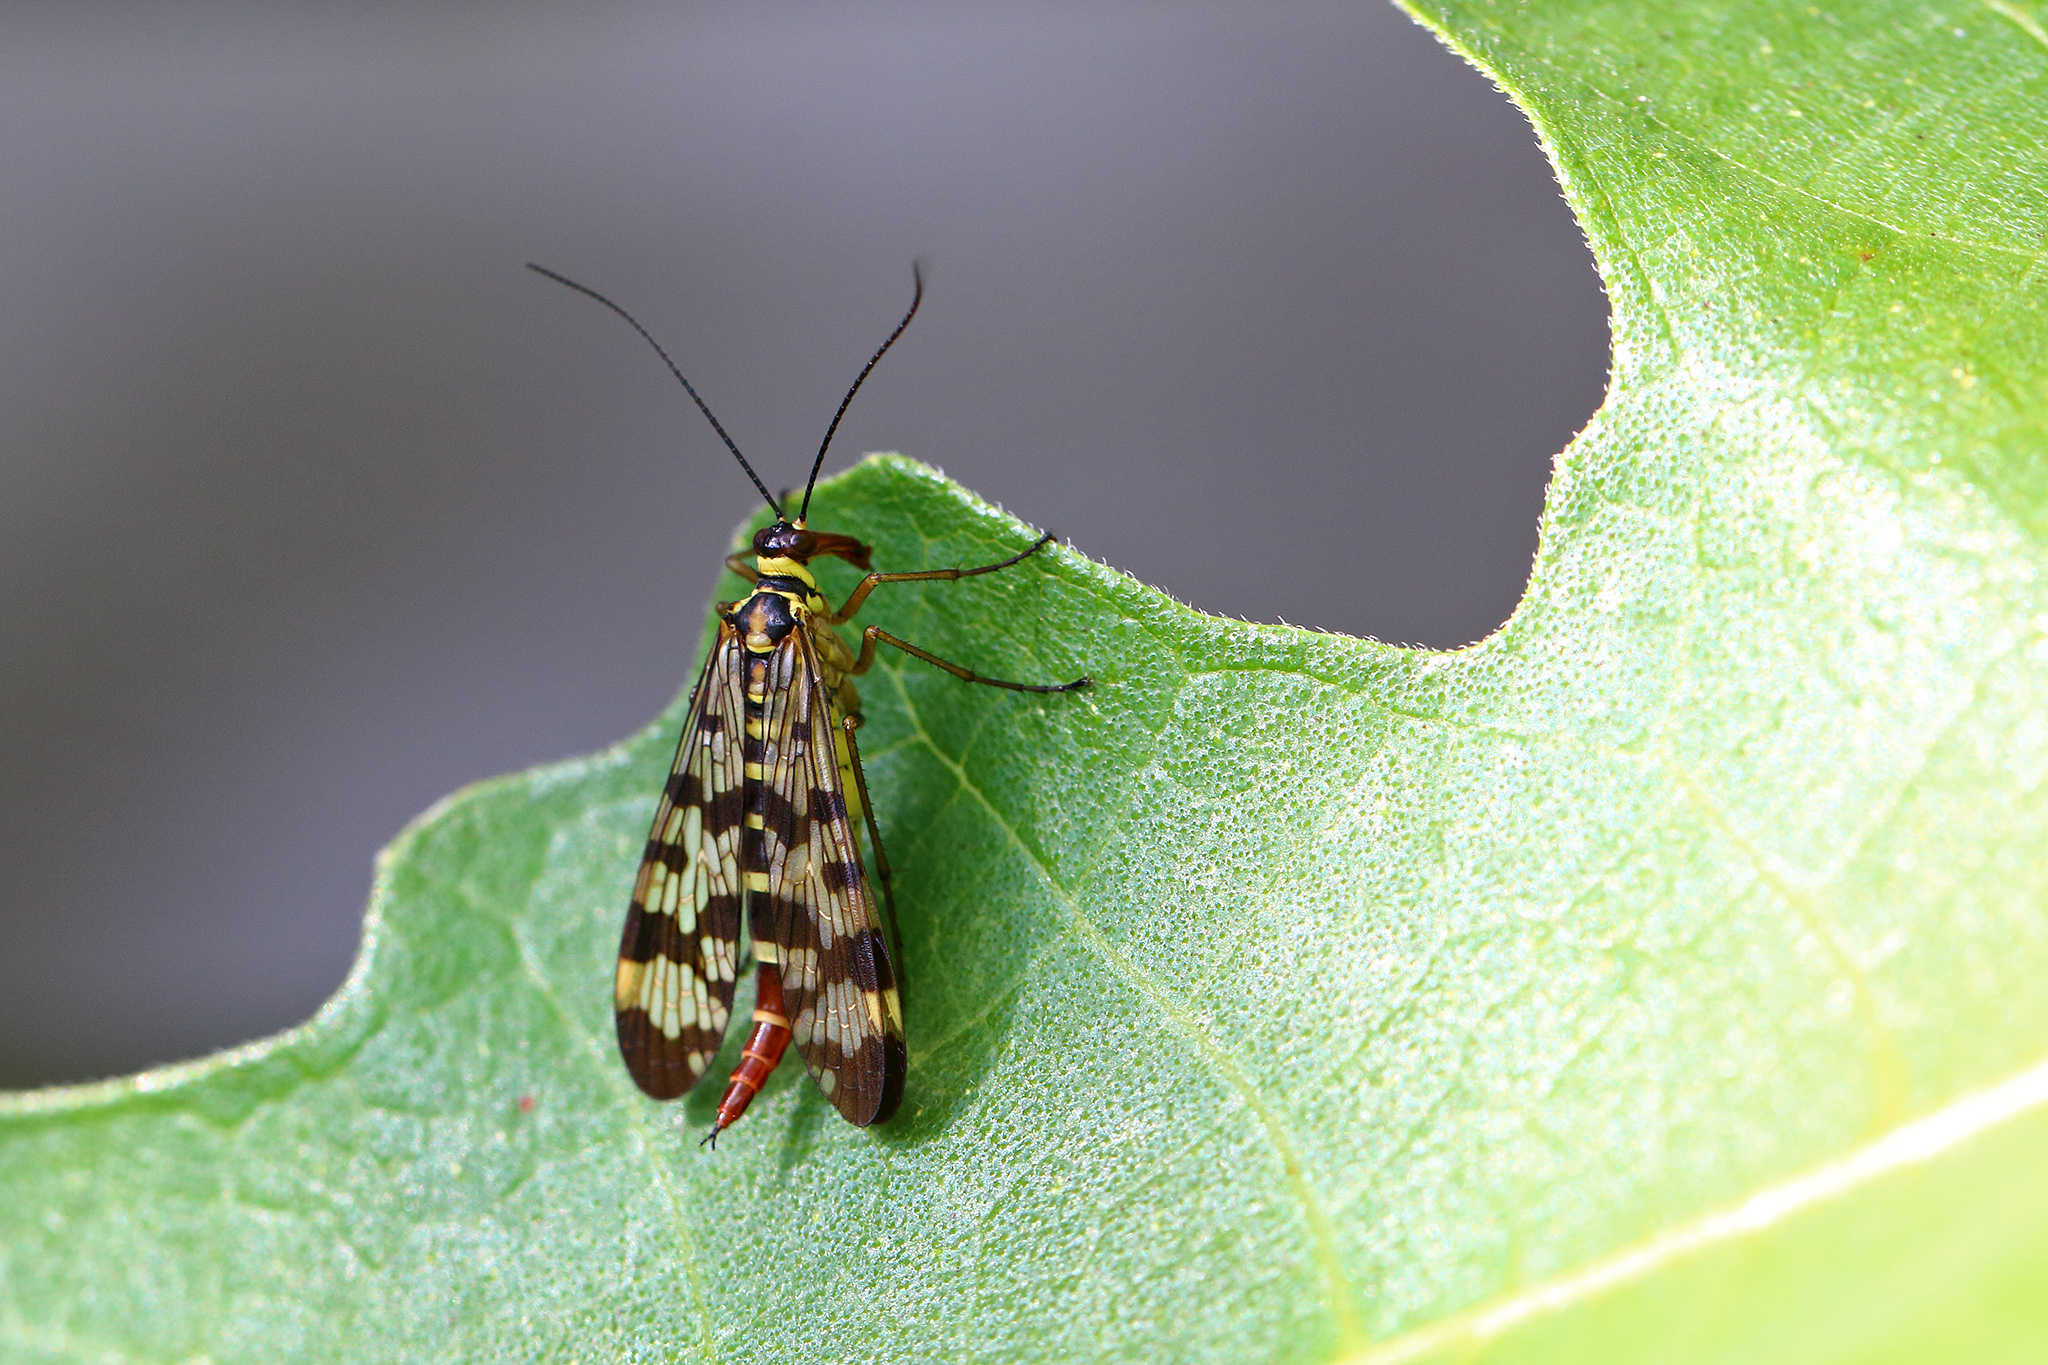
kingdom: Animalia
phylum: Arthropoda
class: Insecta
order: Mecoptera
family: Panorpidae
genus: Panorpa
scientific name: Panorpa communis
